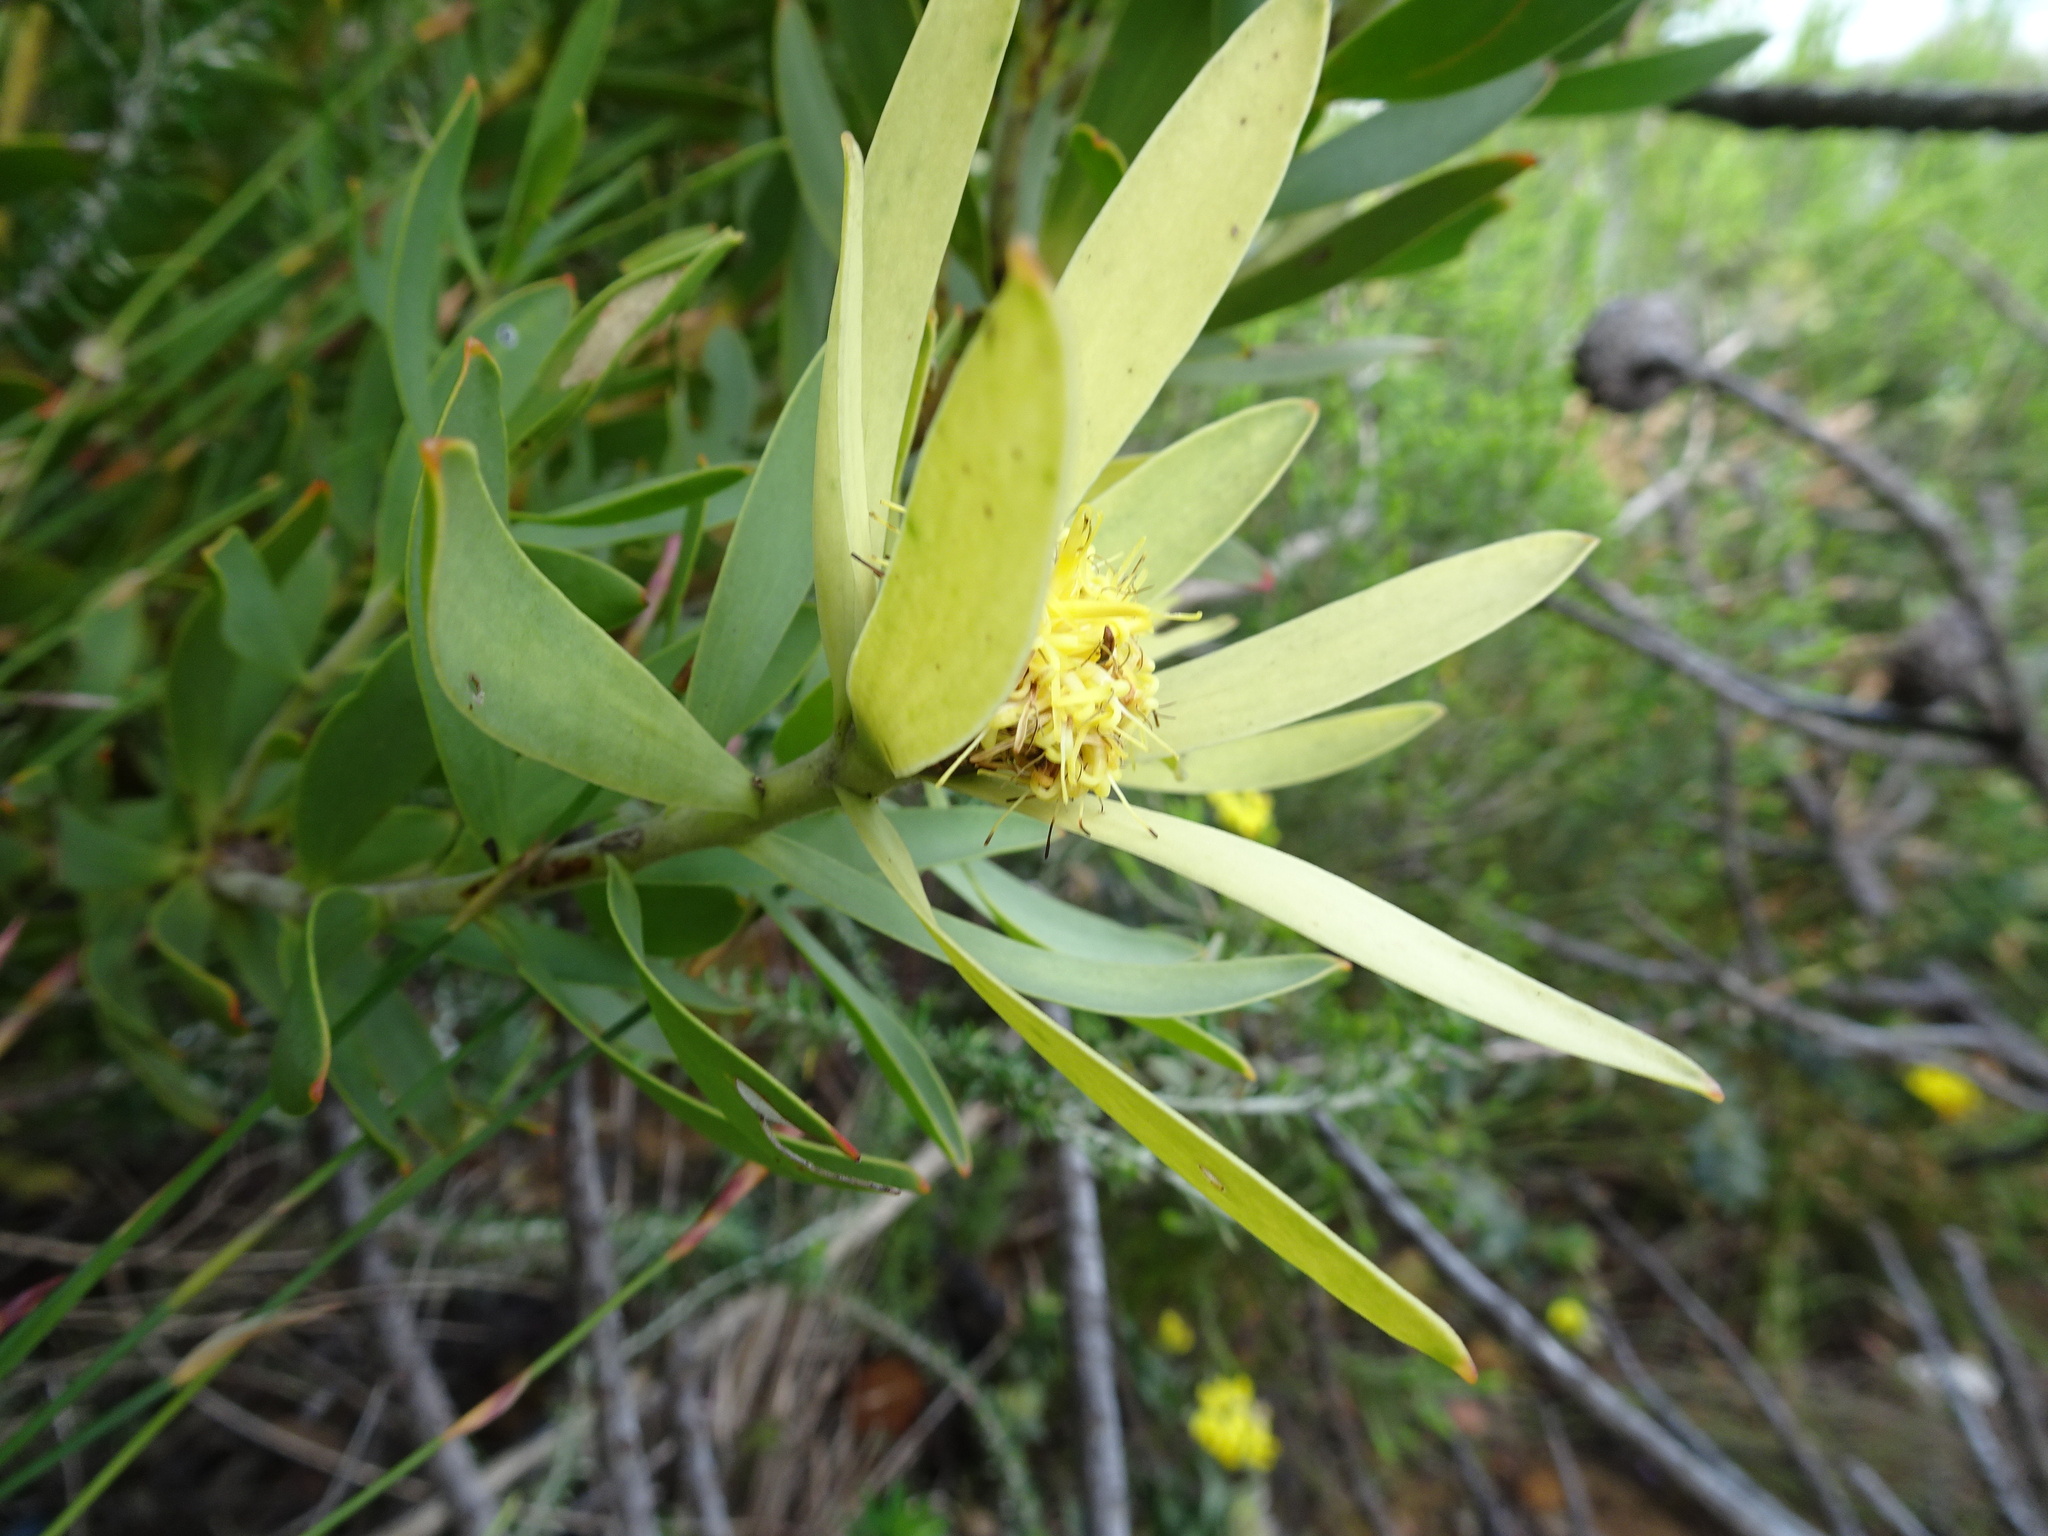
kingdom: Plantae
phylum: Tracheophyta
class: Magnoliopsida
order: Proteales
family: Proteaceae
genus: Leucadendron
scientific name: Leucadendron sessile
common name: Western sunbush
